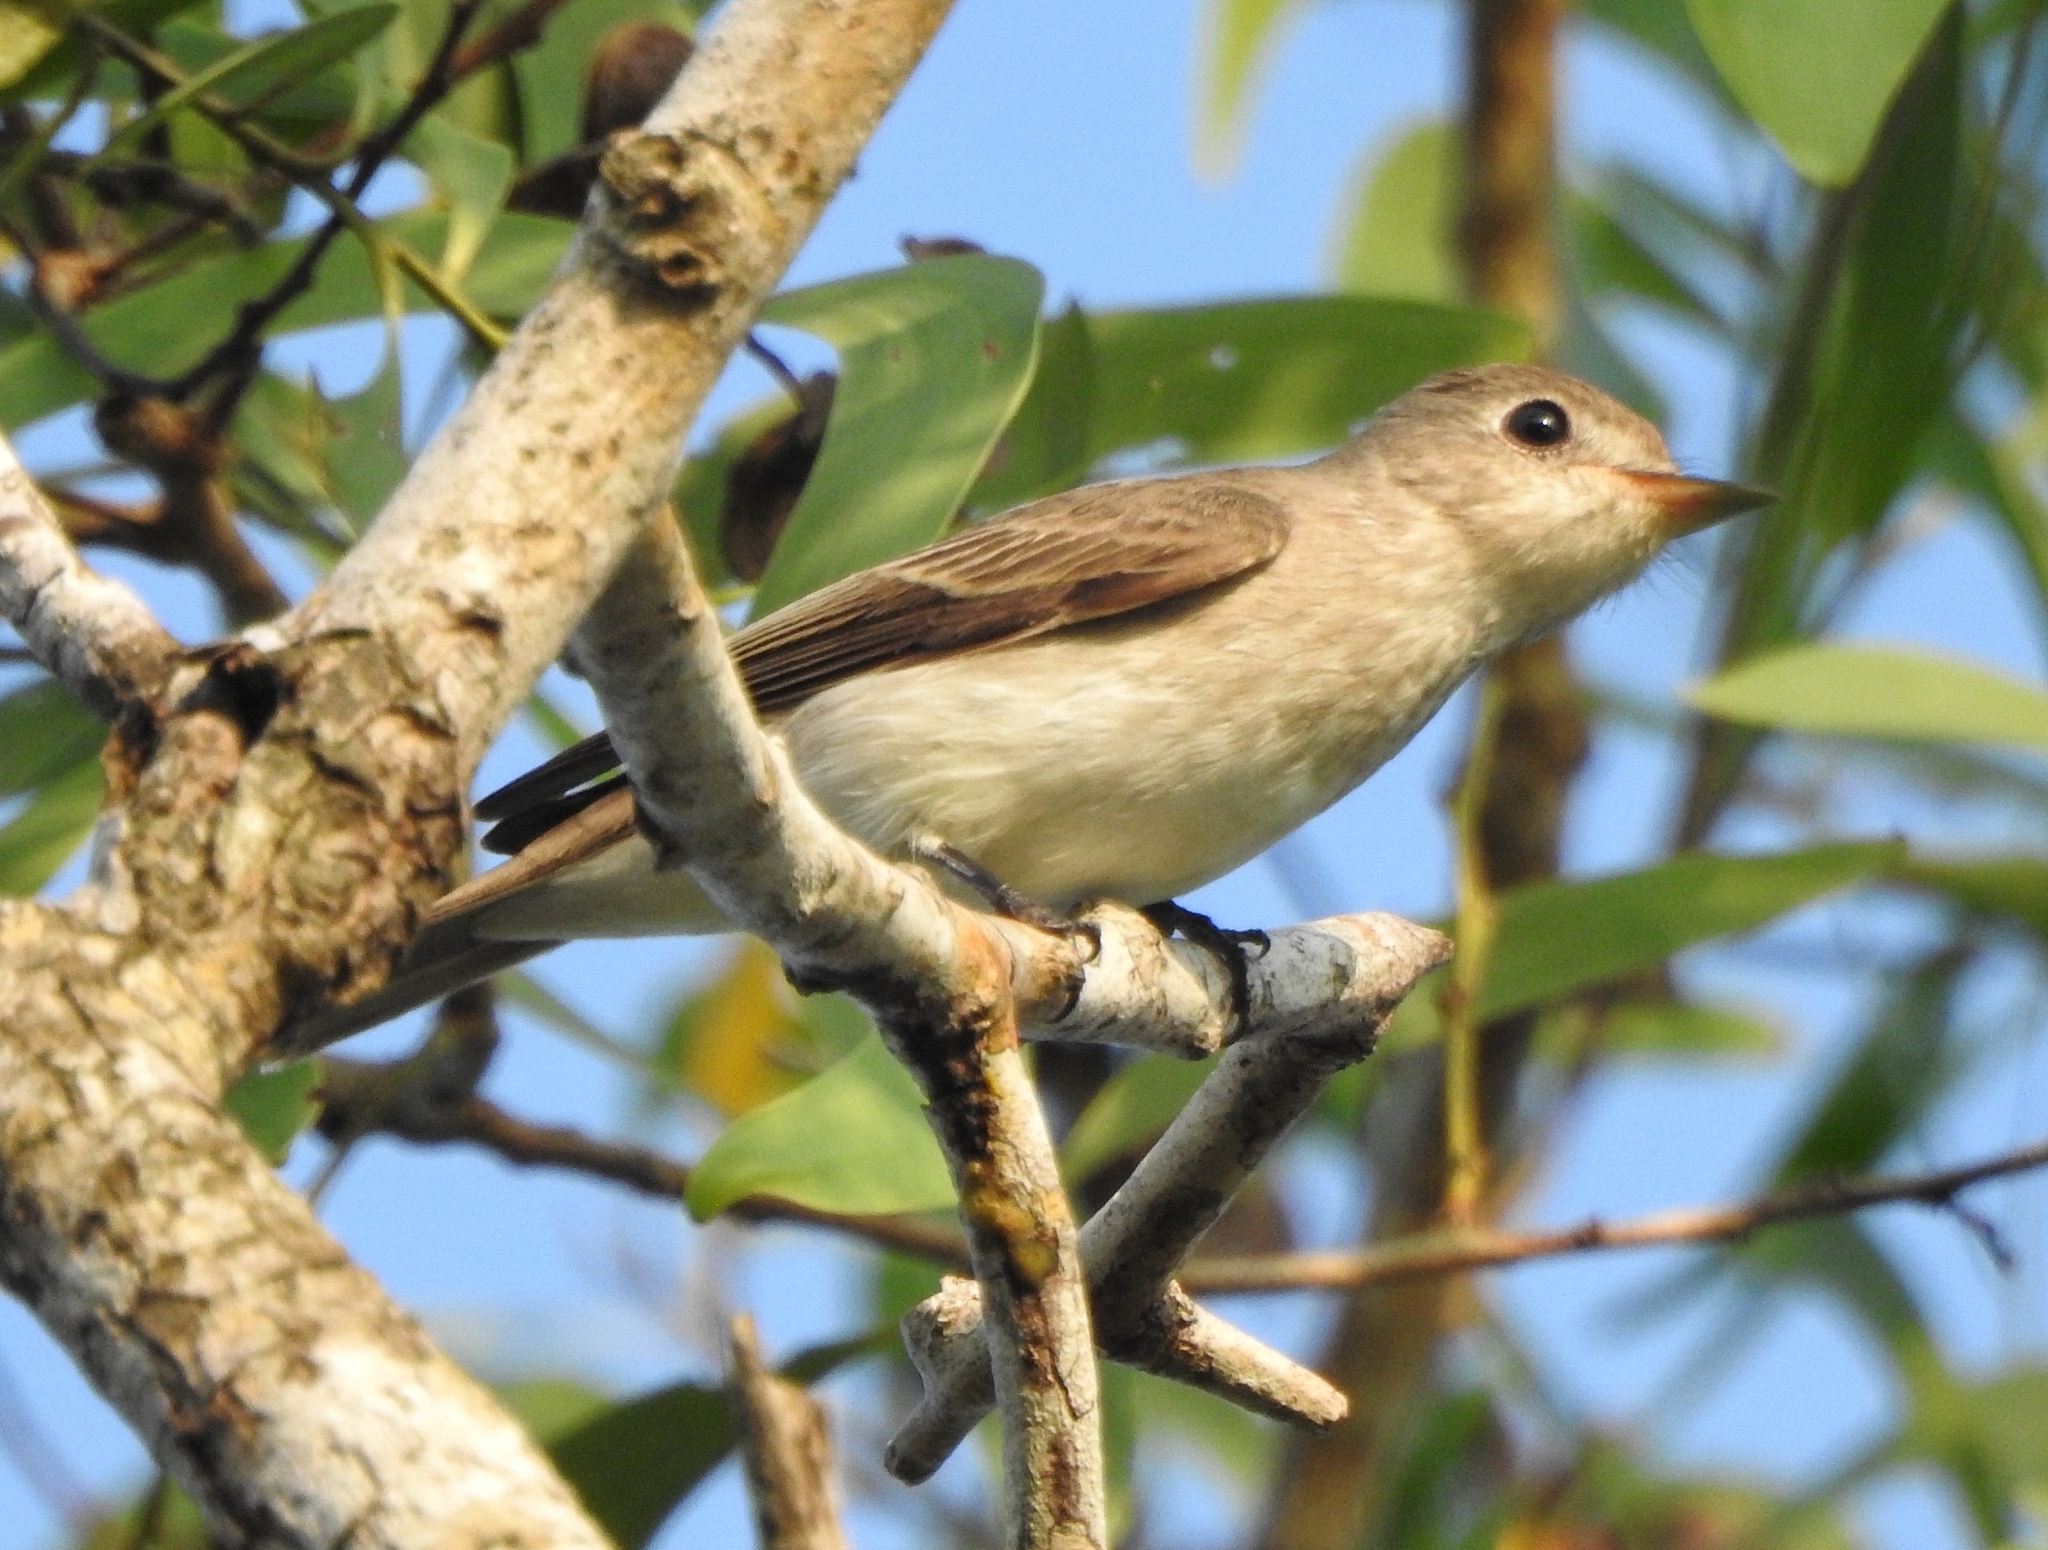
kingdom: Animalia
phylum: Chordata
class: Aves
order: Passeriformes
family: Muscicapidae
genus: Muscicapa
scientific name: Muscicapa latirostris
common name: Asian brown flycatcher
